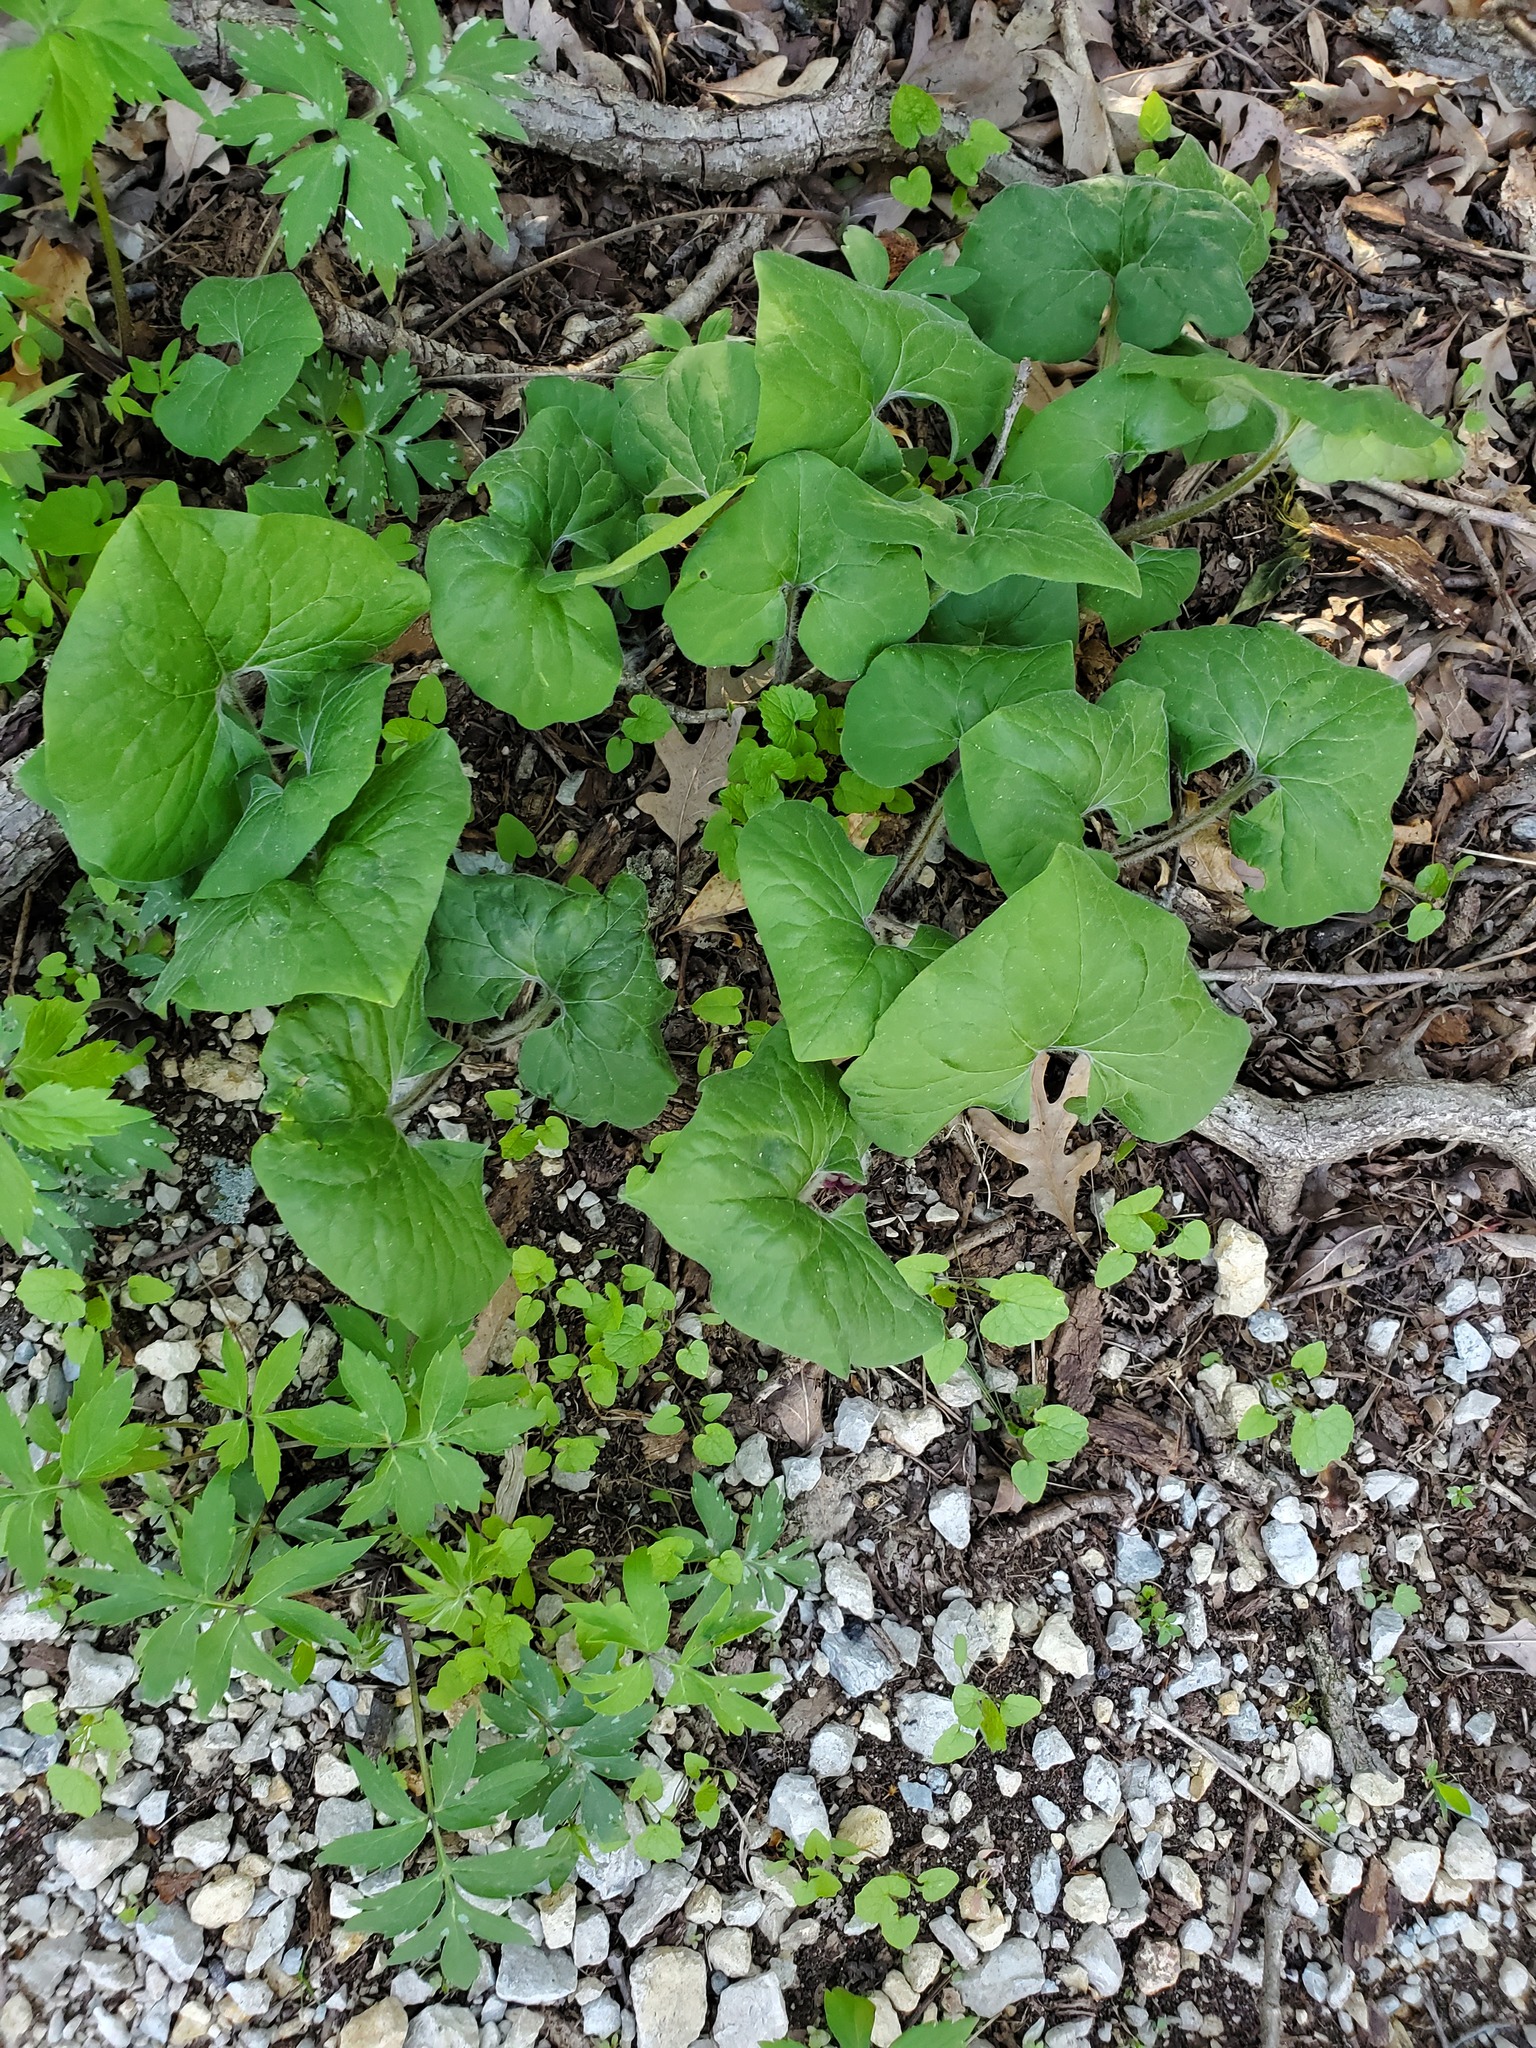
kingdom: Plantae
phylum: Tracheophyta
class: Magnoliopsida
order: Piperales
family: Aristolochiaceae
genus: Asarum
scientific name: Asarum canadense
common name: Wild ginger
